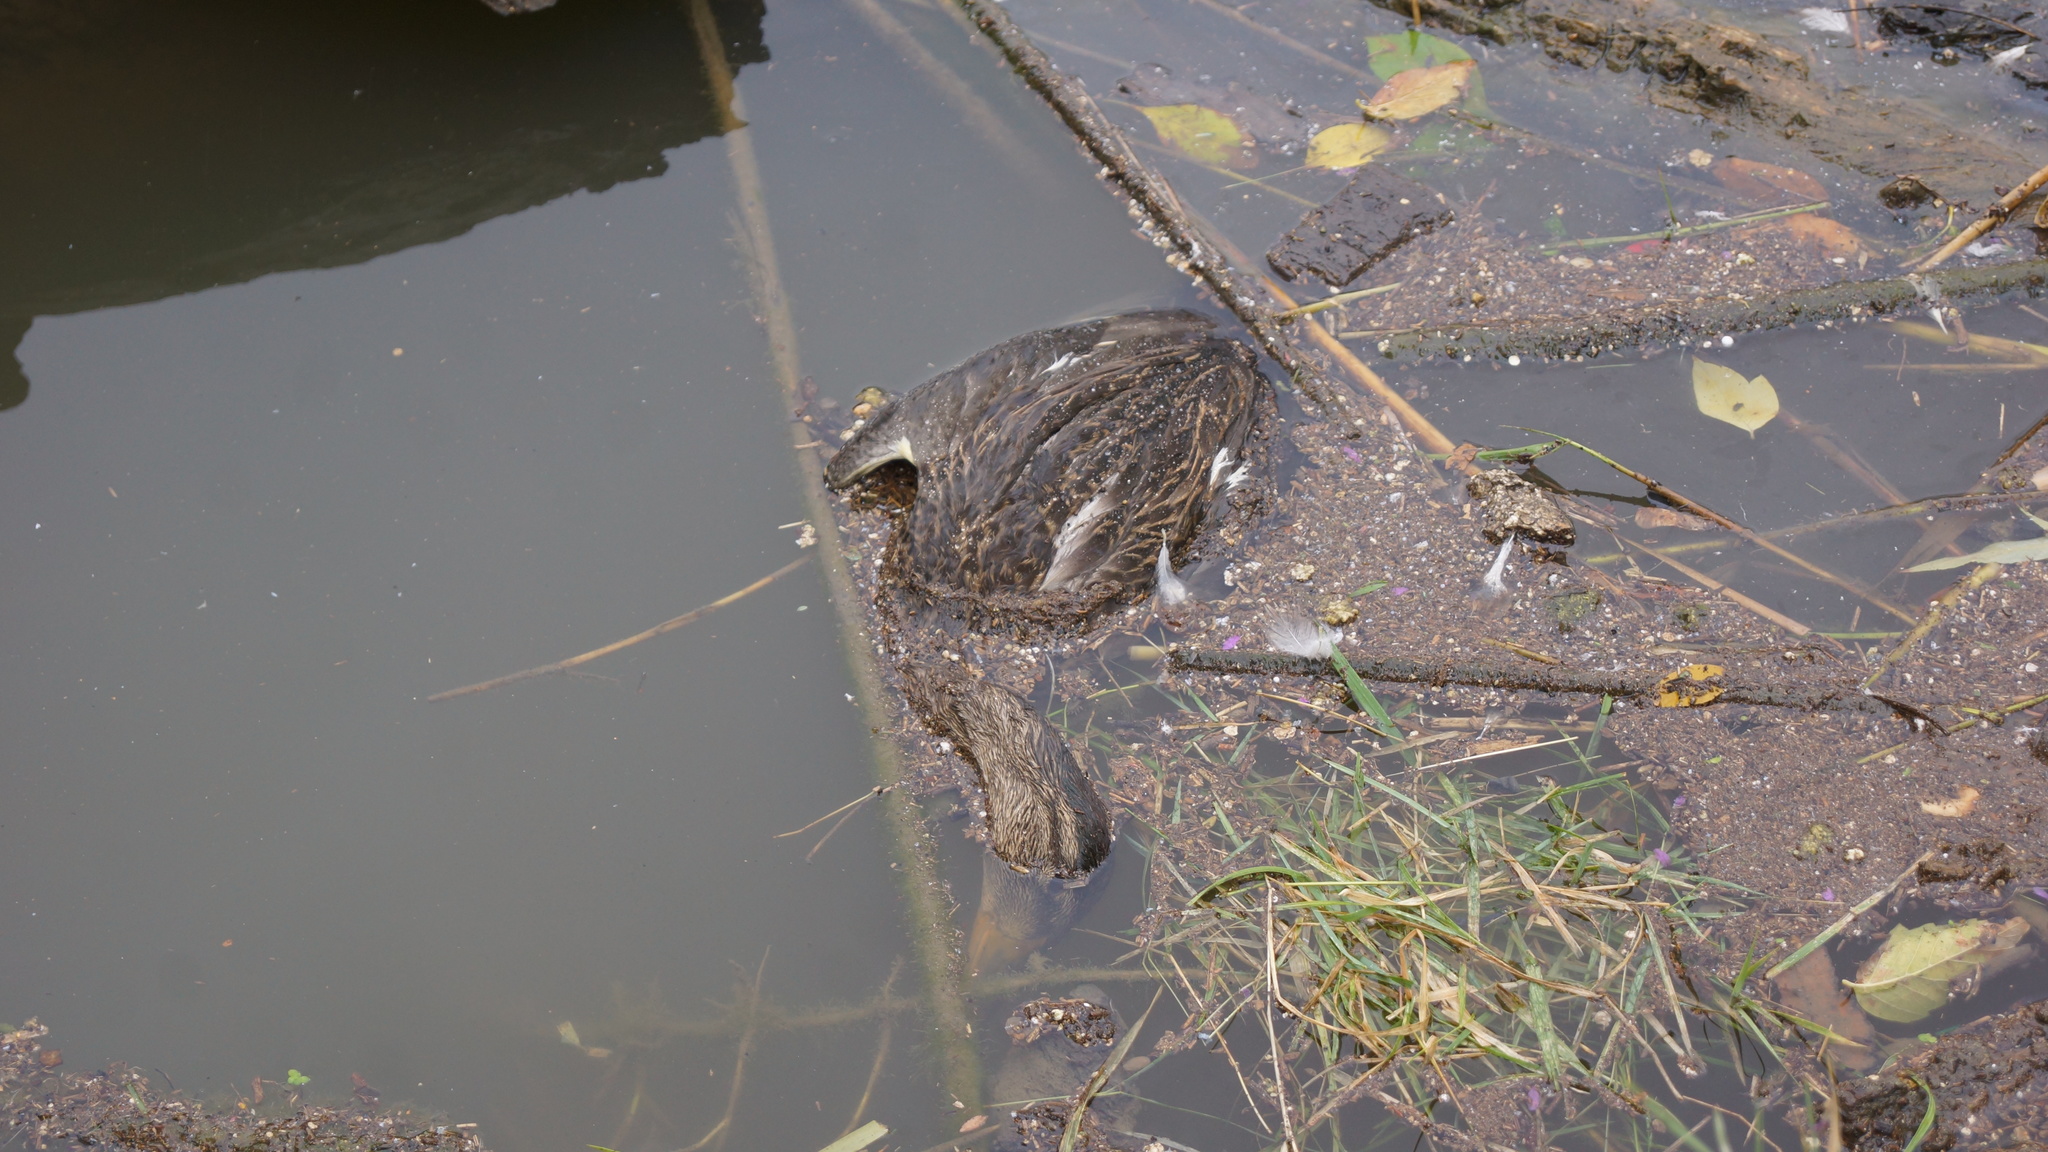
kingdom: Animalia
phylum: Chordata
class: Aves
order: Anseriformes
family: Anatidae
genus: Anas
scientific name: Anas platyrhynchos
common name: Mallard
